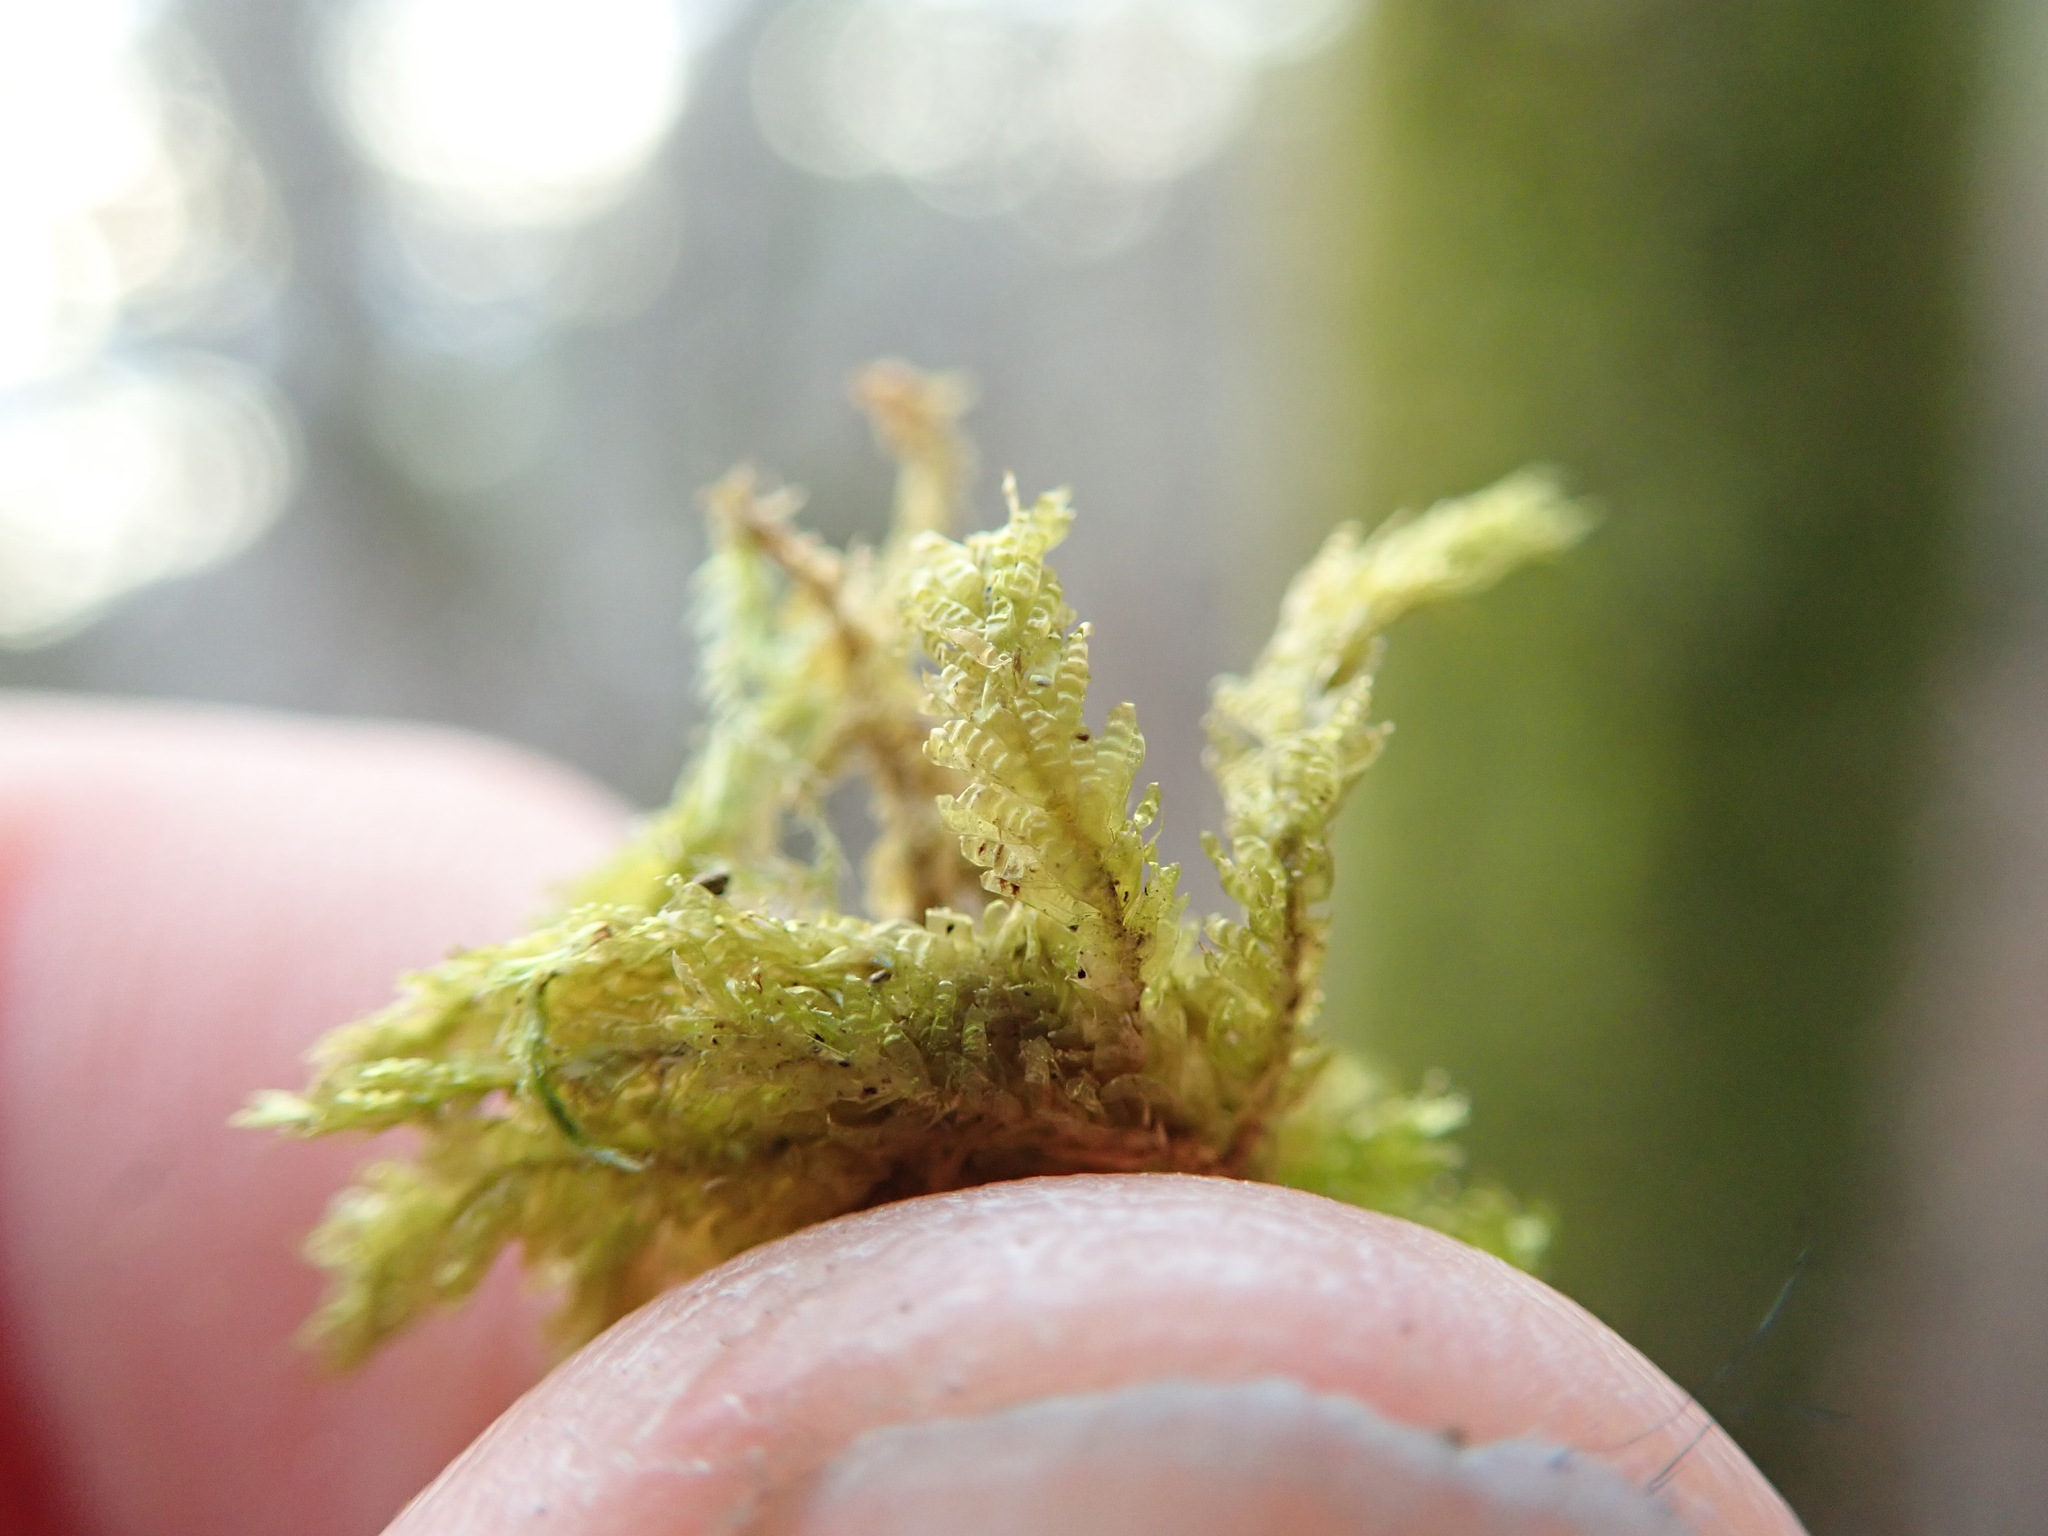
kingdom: Plantae
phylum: Bryophyta
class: Bryopsida
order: Hypnales
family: Neckeraceae
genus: Metaneckera
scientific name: Metaneckera menziesii
